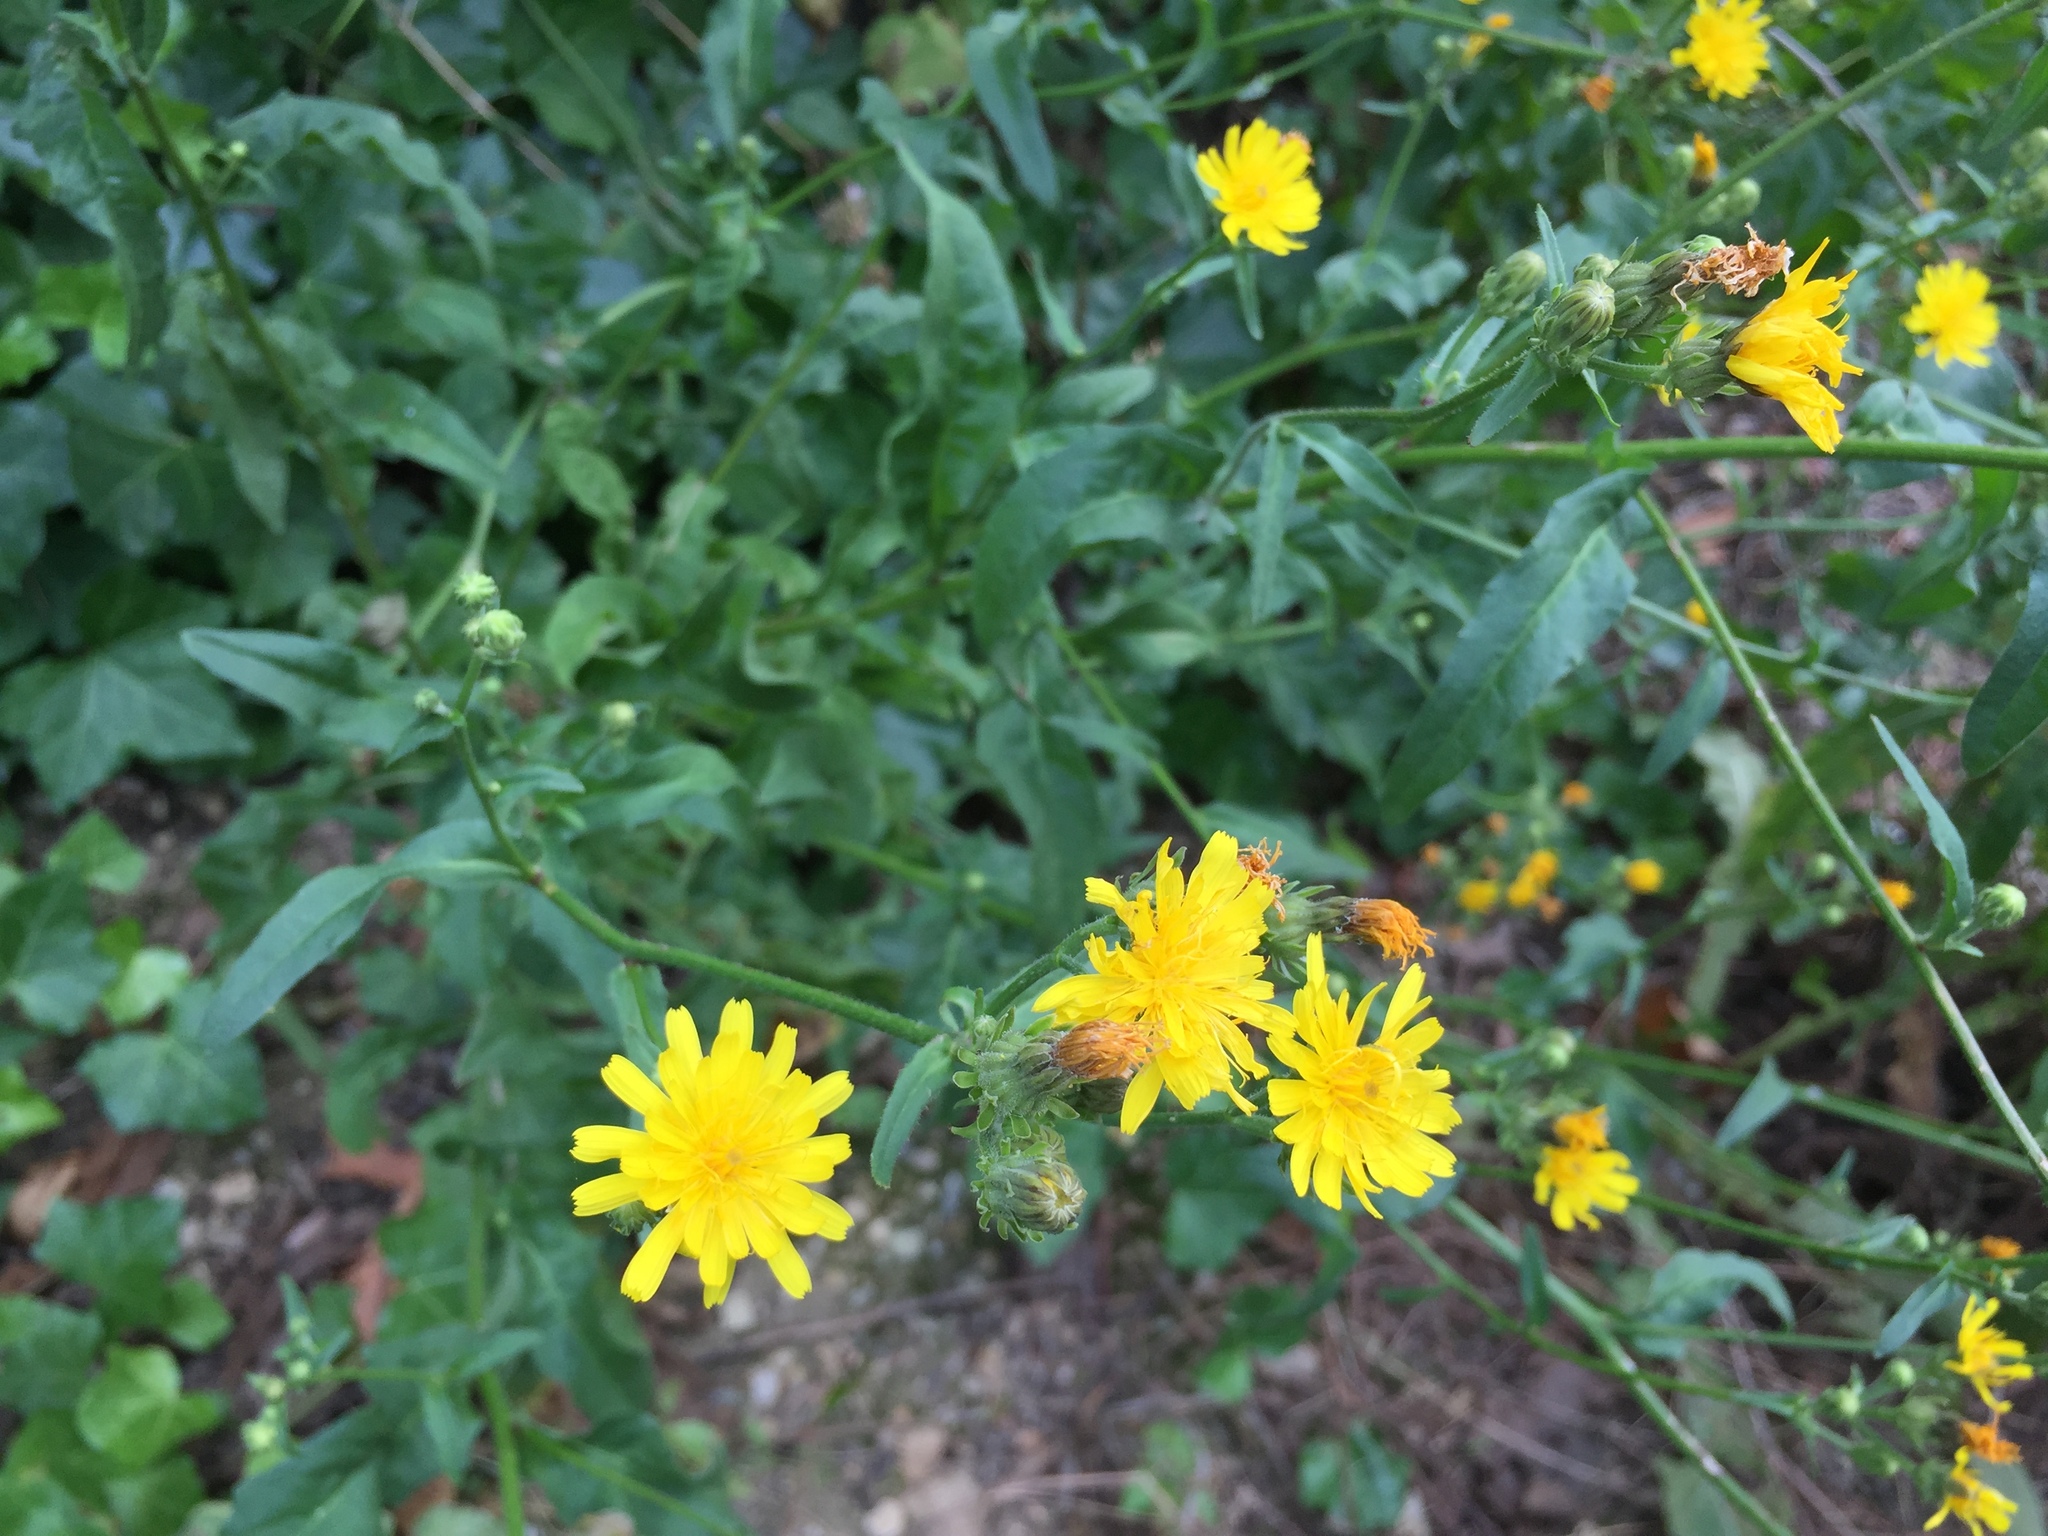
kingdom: Plantae
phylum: Tracheophyta
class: Magnoliopsida
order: Asterales
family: Asteraceae
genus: Picris
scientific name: Picris hieracioides
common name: Hawkweed oxtongue
